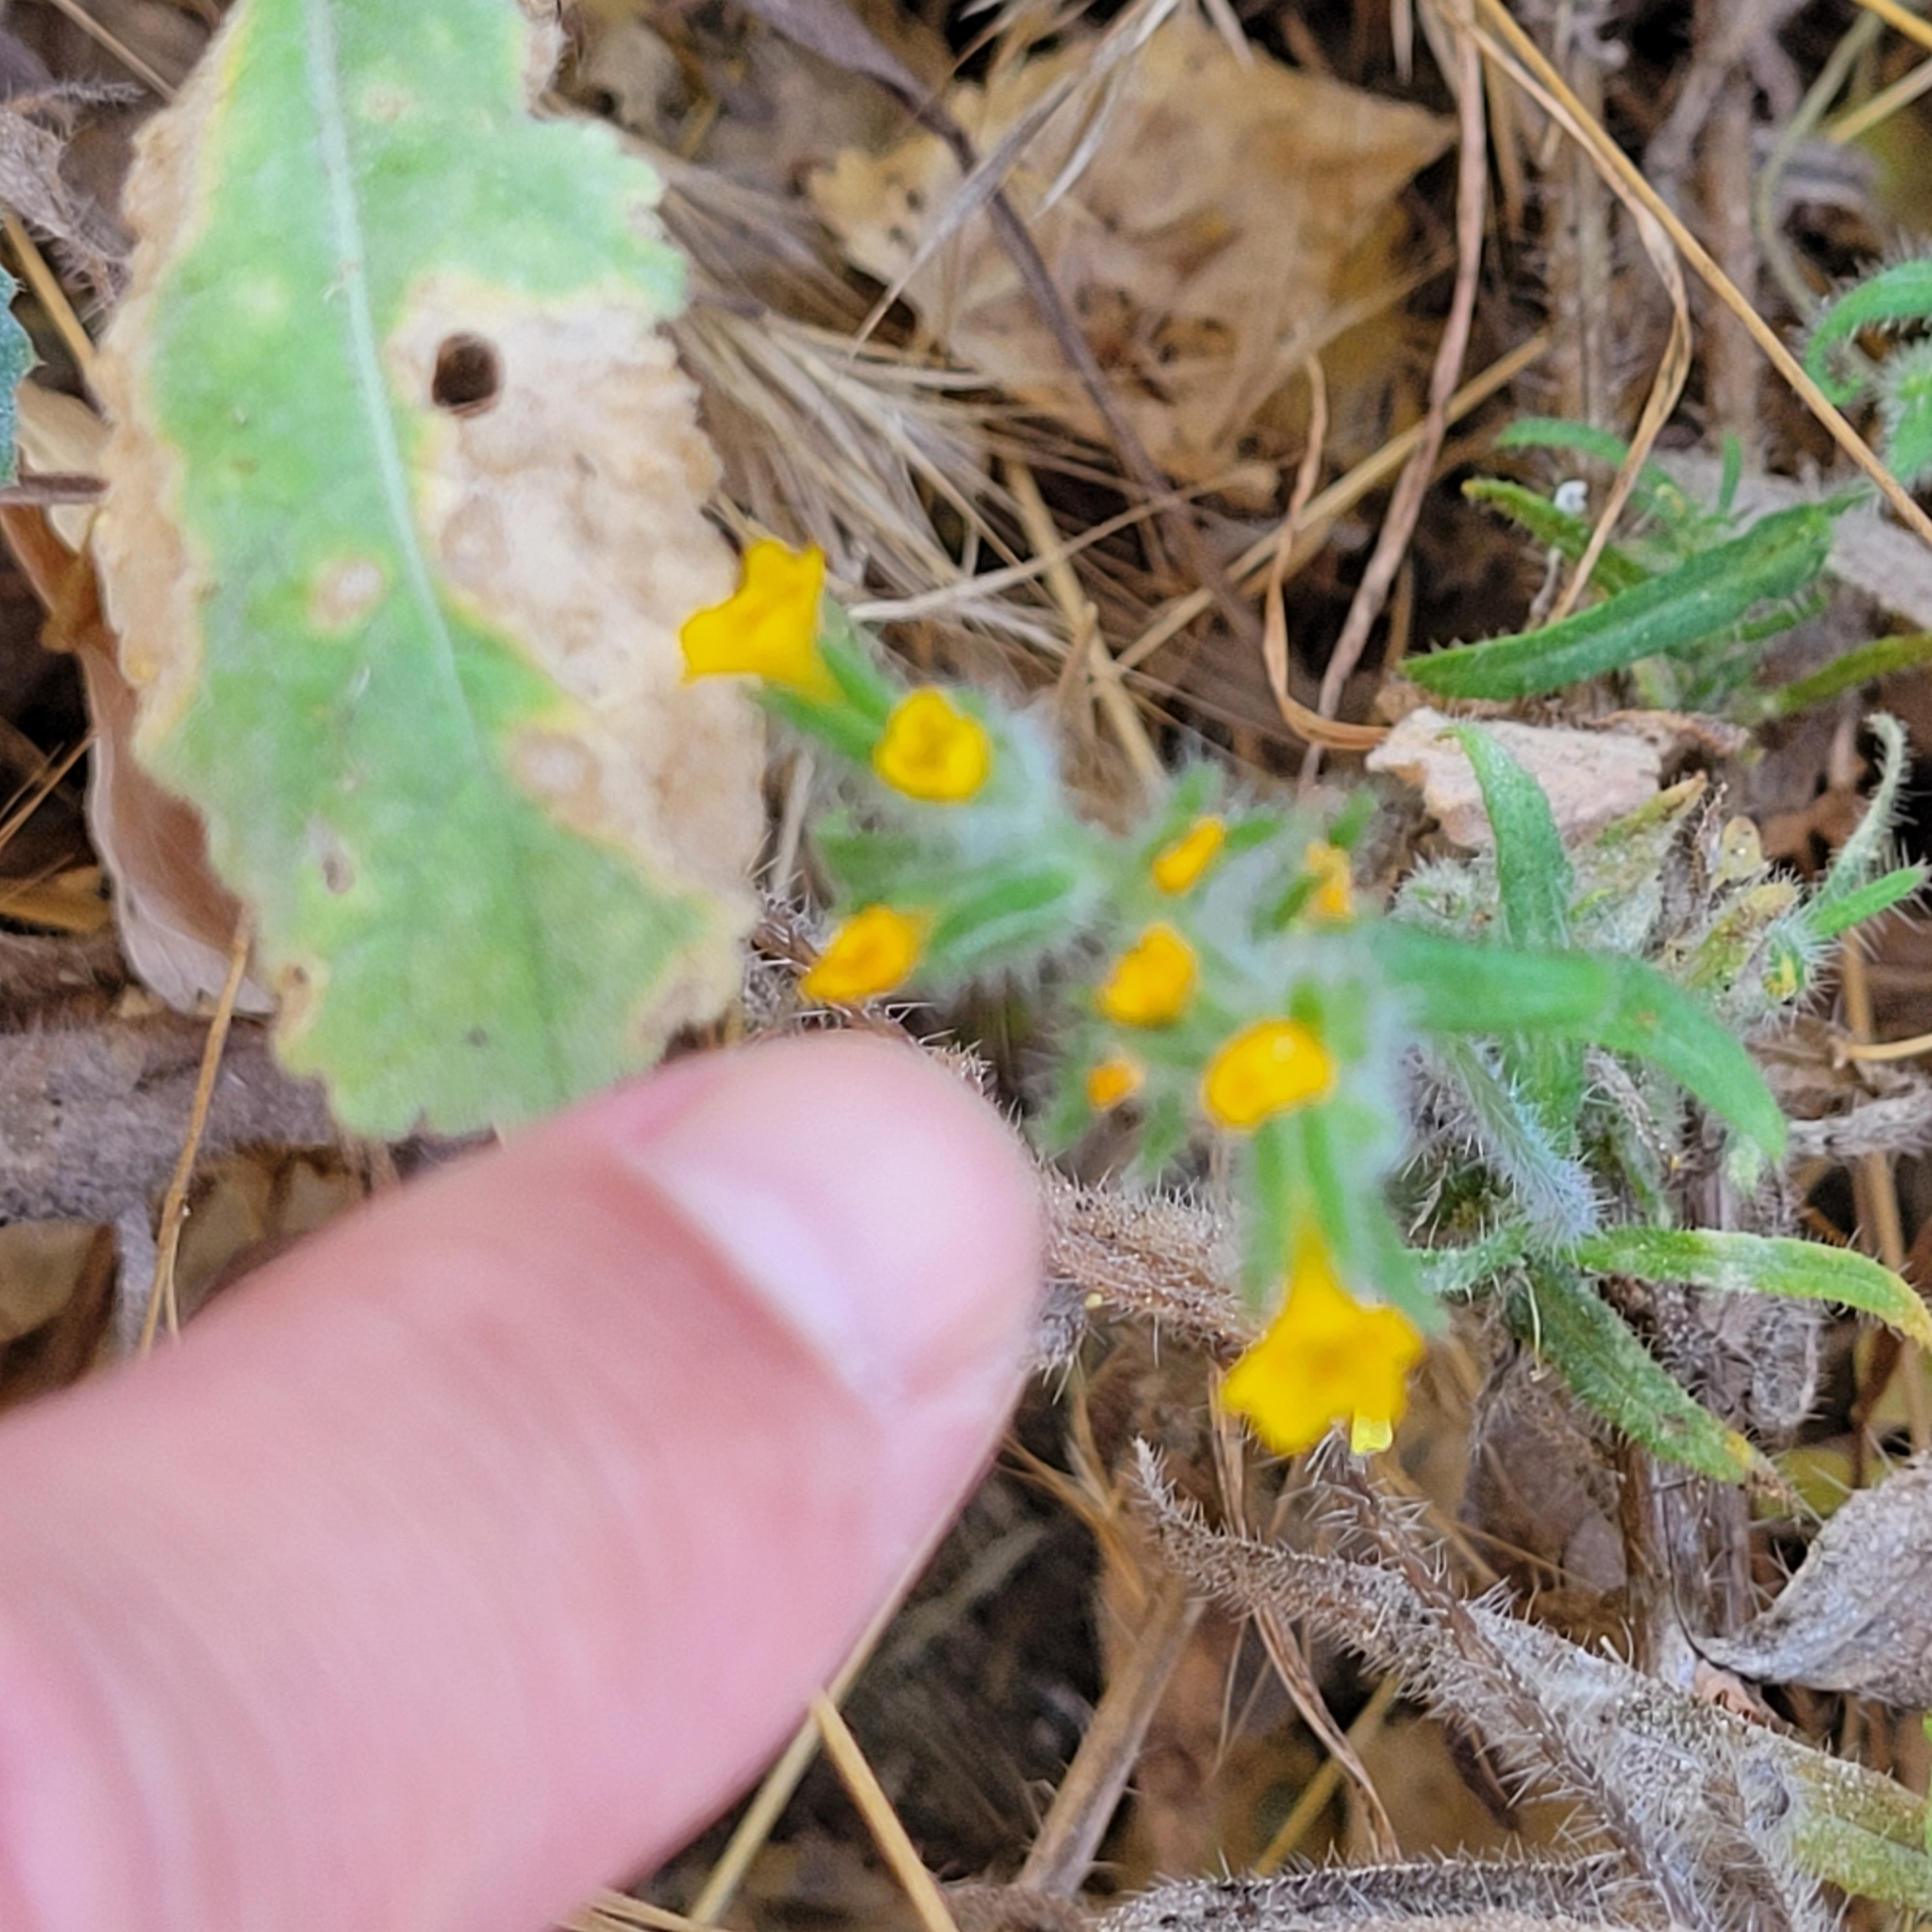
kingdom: Plantae
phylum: Tracheophyta
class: Magnoliopsida
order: Boraginales
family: Boraginaceae
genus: Amsinckia
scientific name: Amsinckia menziesii
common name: Menzies' fiddleneck
